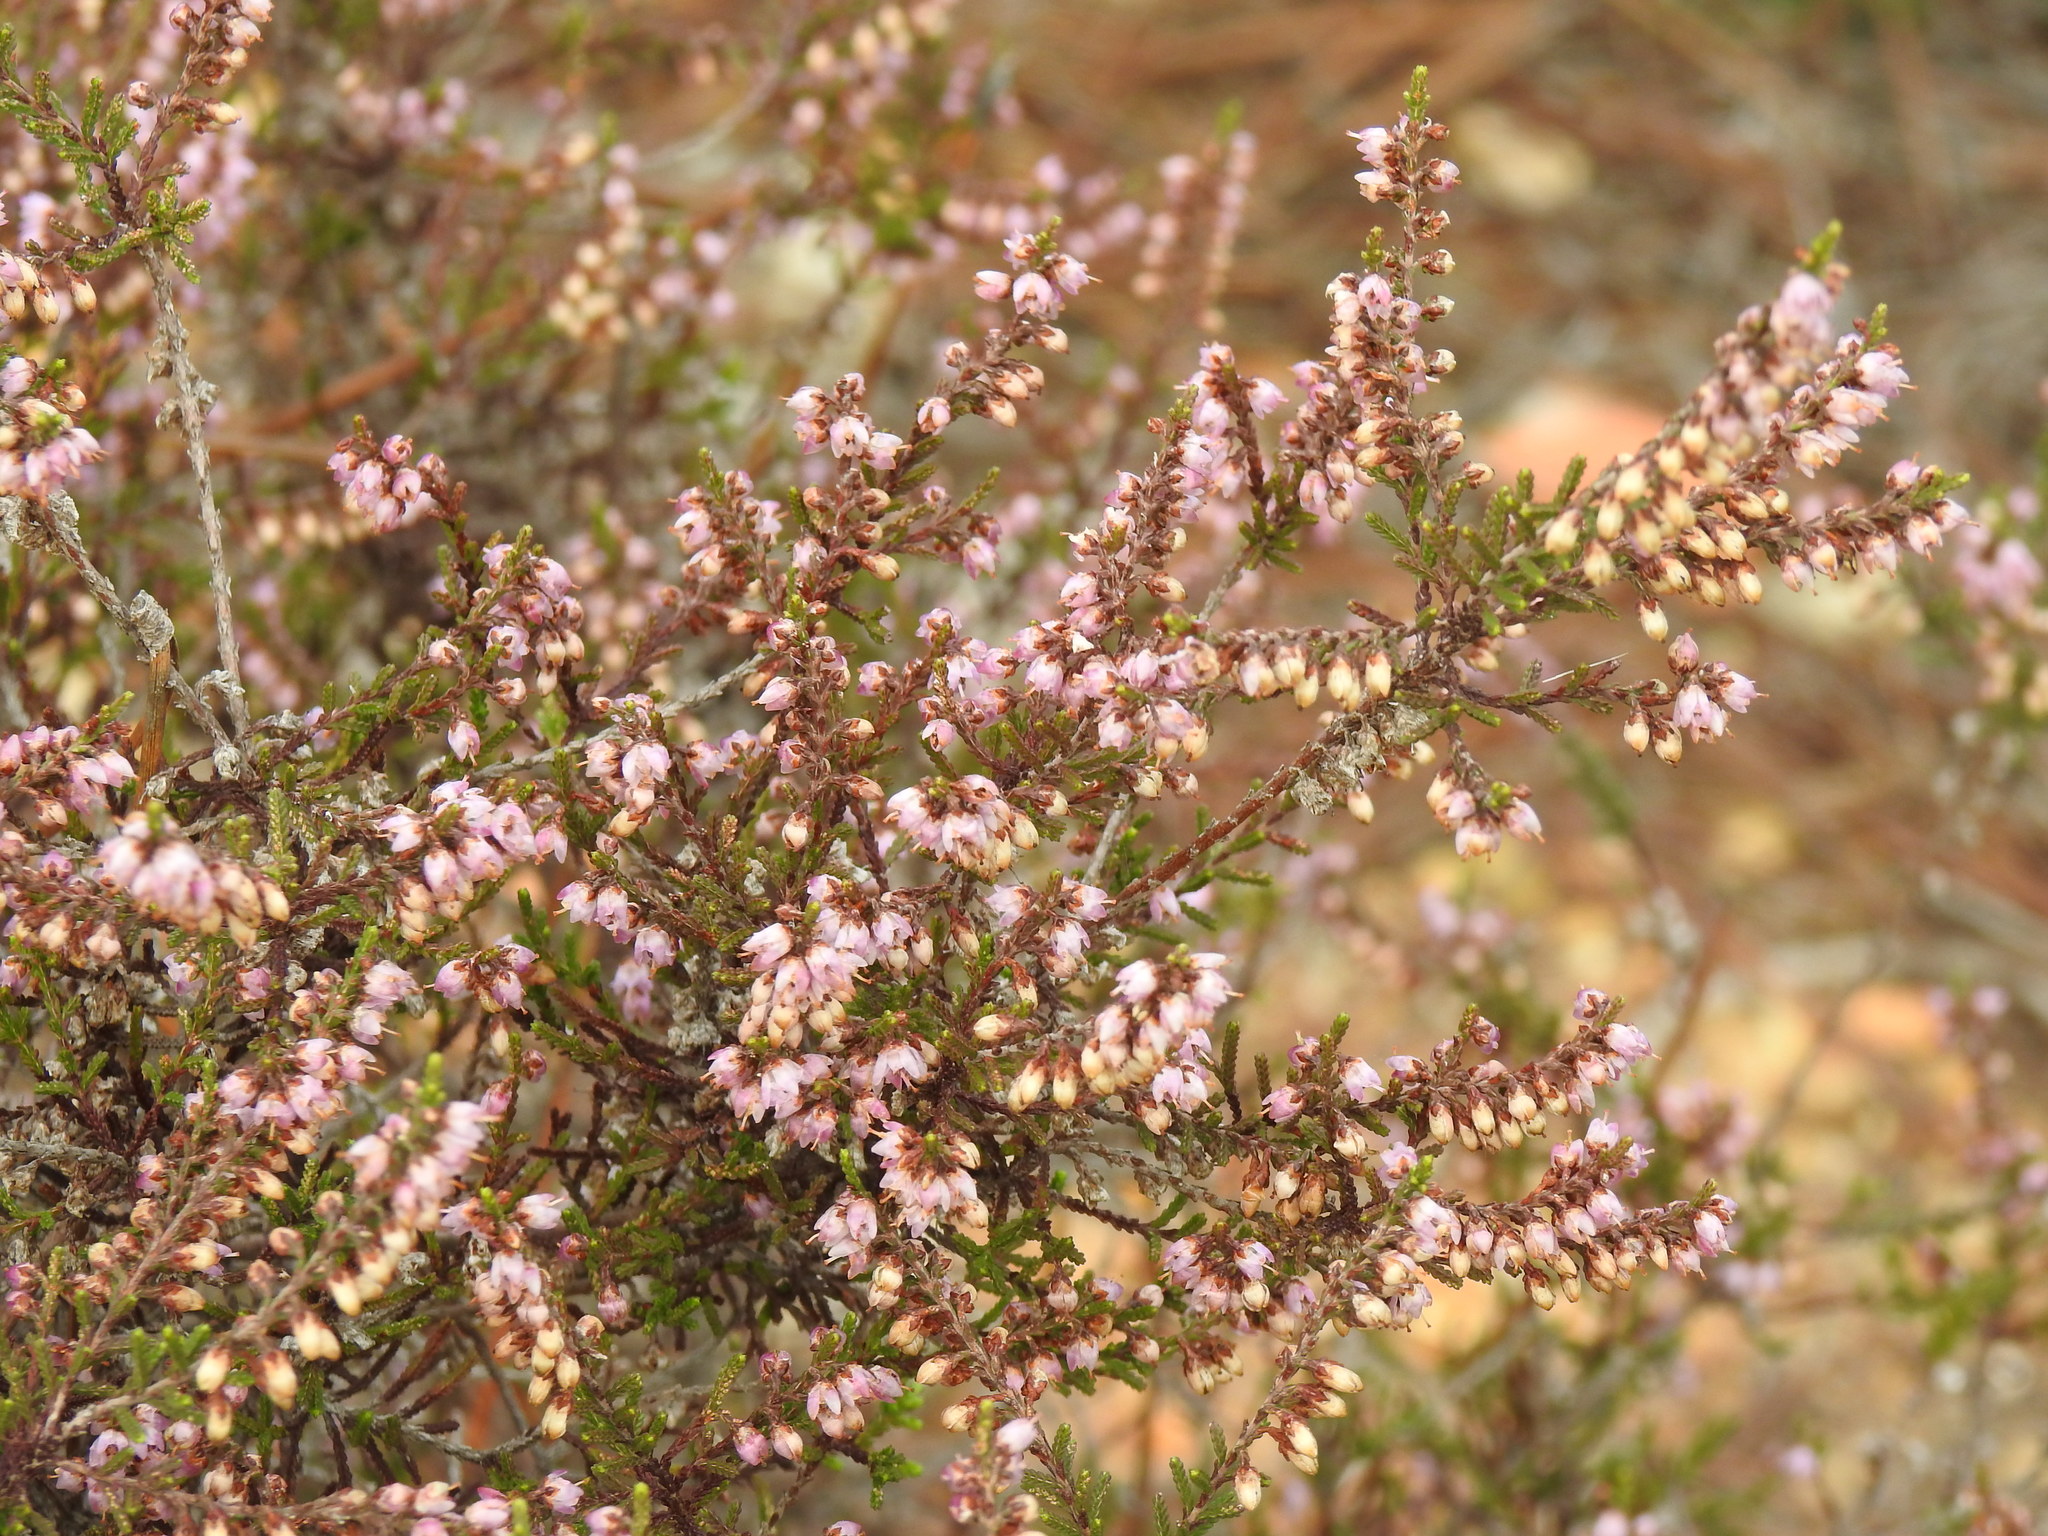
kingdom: Plantae
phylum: Tracheophyta
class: Magnoliopsida
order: Ericales
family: Ericaceae
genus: Calluna
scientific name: Calluna vulgaris
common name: Heather
